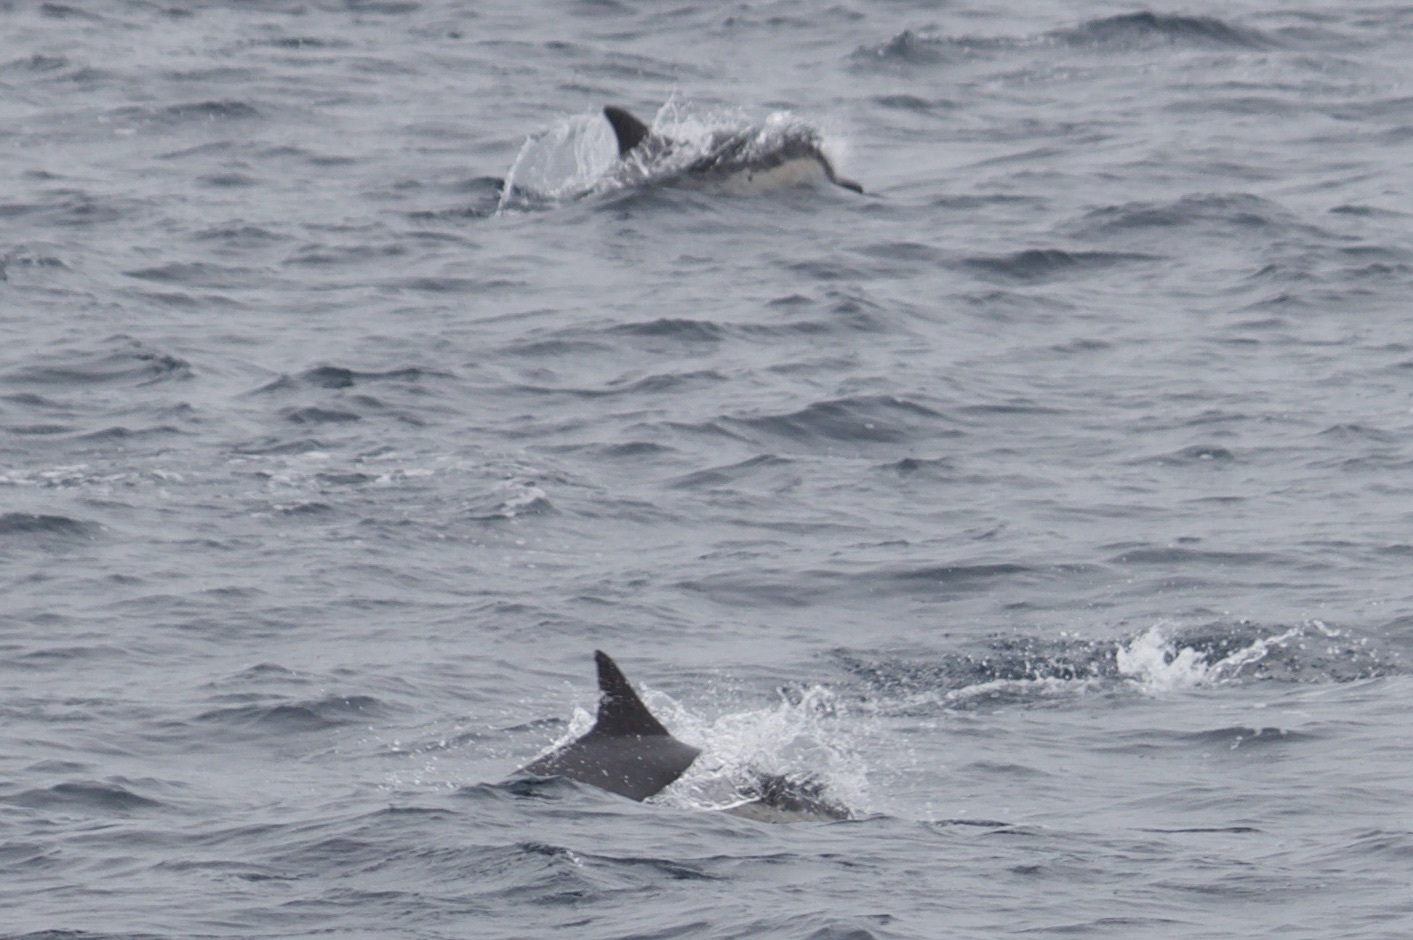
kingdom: Animalia
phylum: Chordata
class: Mammalia
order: Cetacea
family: Delphinidae
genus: Delphinus
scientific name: Delphinus delphis
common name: Common dolphin
